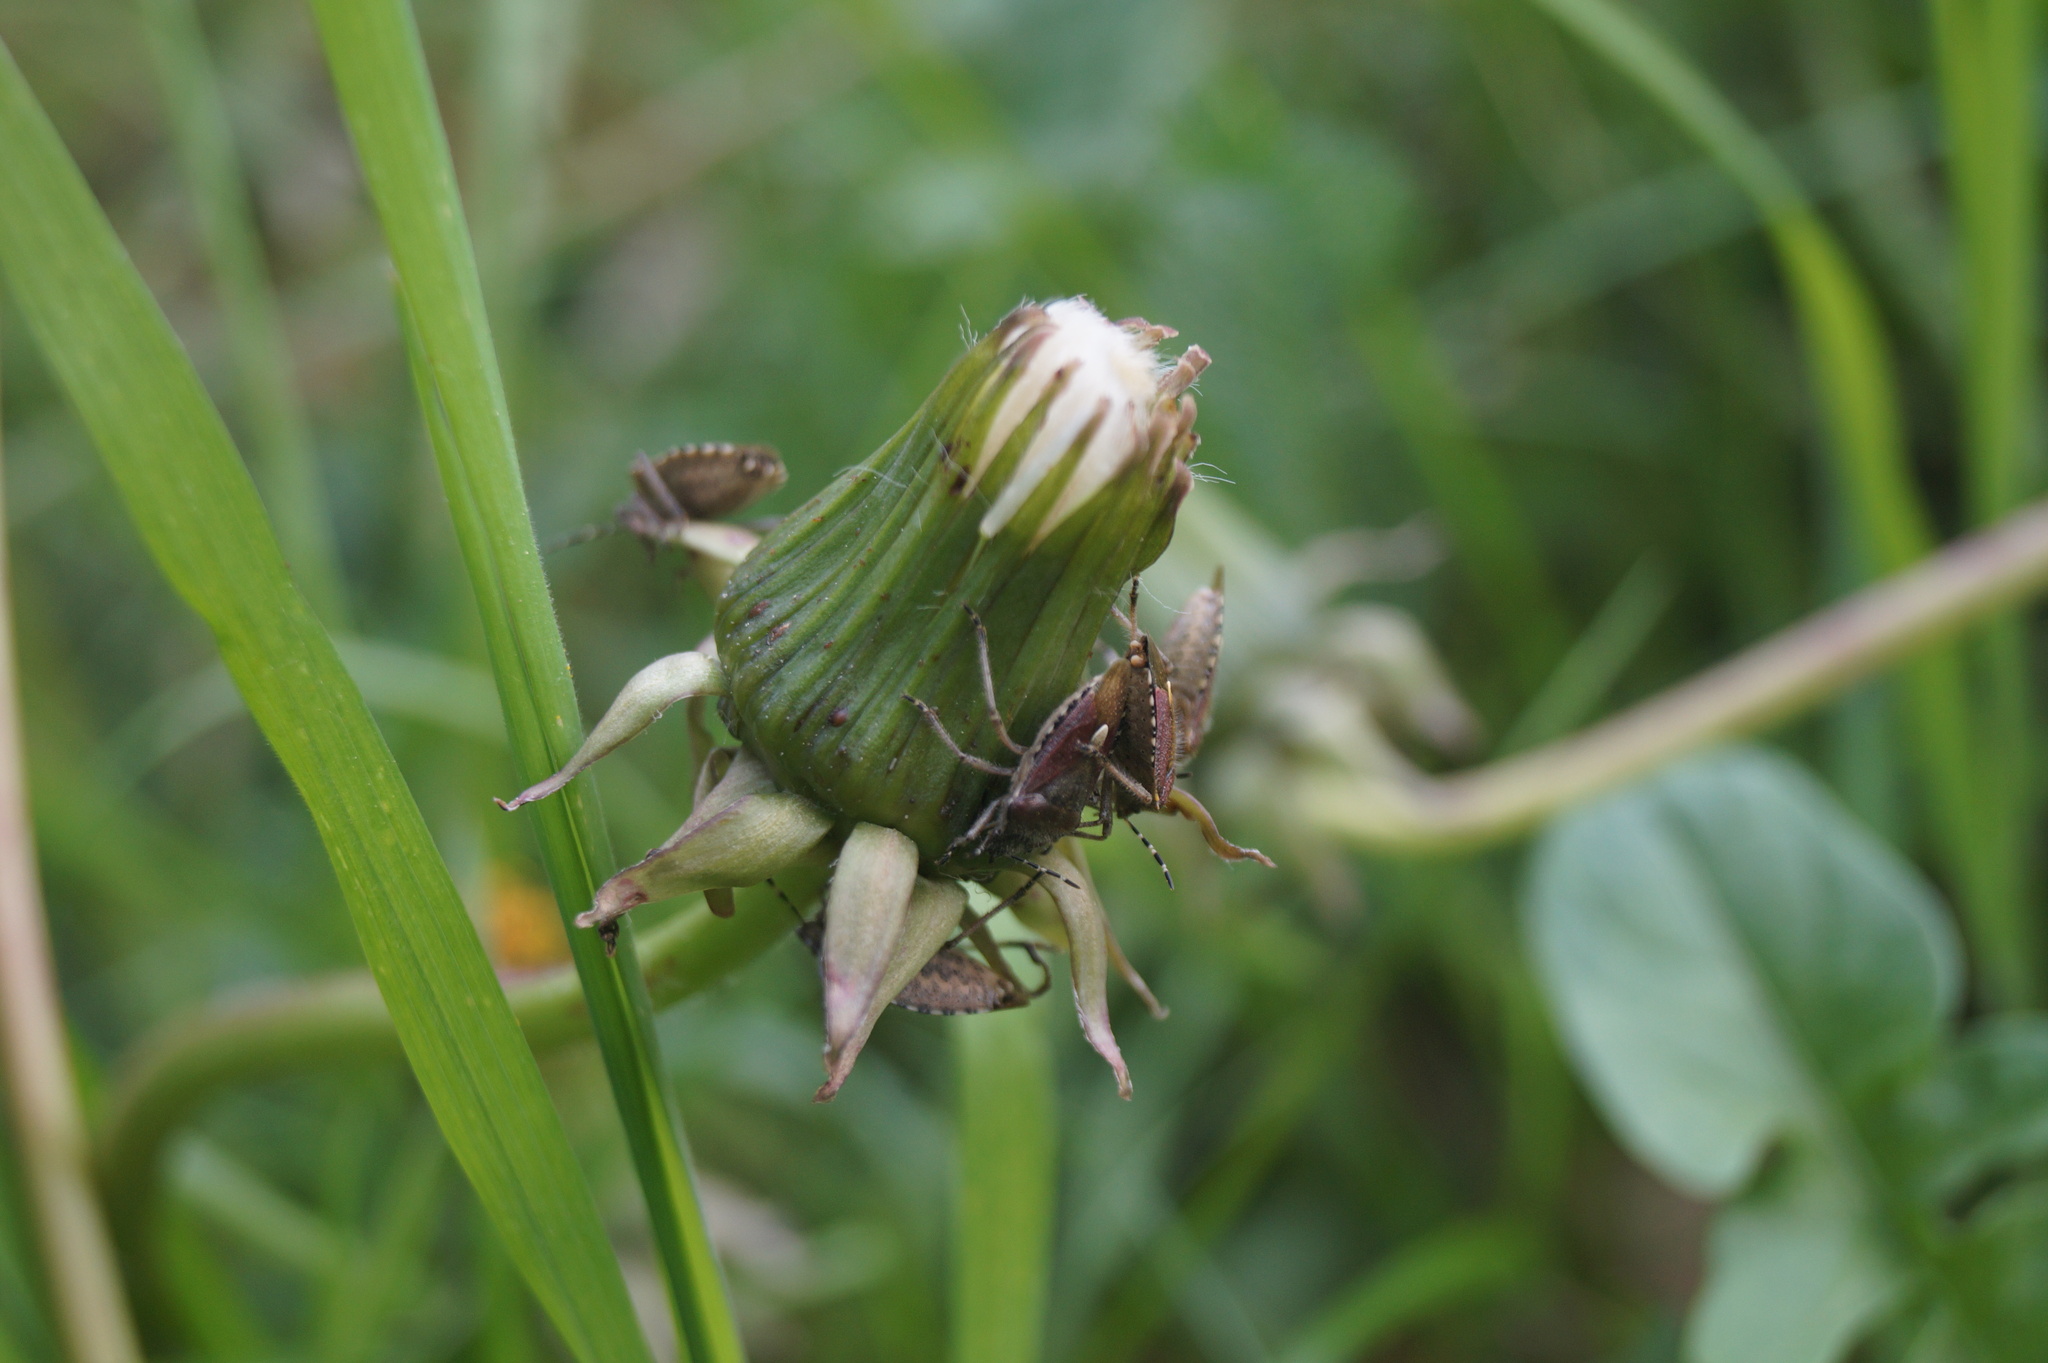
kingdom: Animalia
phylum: Arthropoda
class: Insecta
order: Hemiptera
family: Pentatomidae
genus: Dolycoris
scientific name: Dolycoris baccarum
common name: Sloe bug
